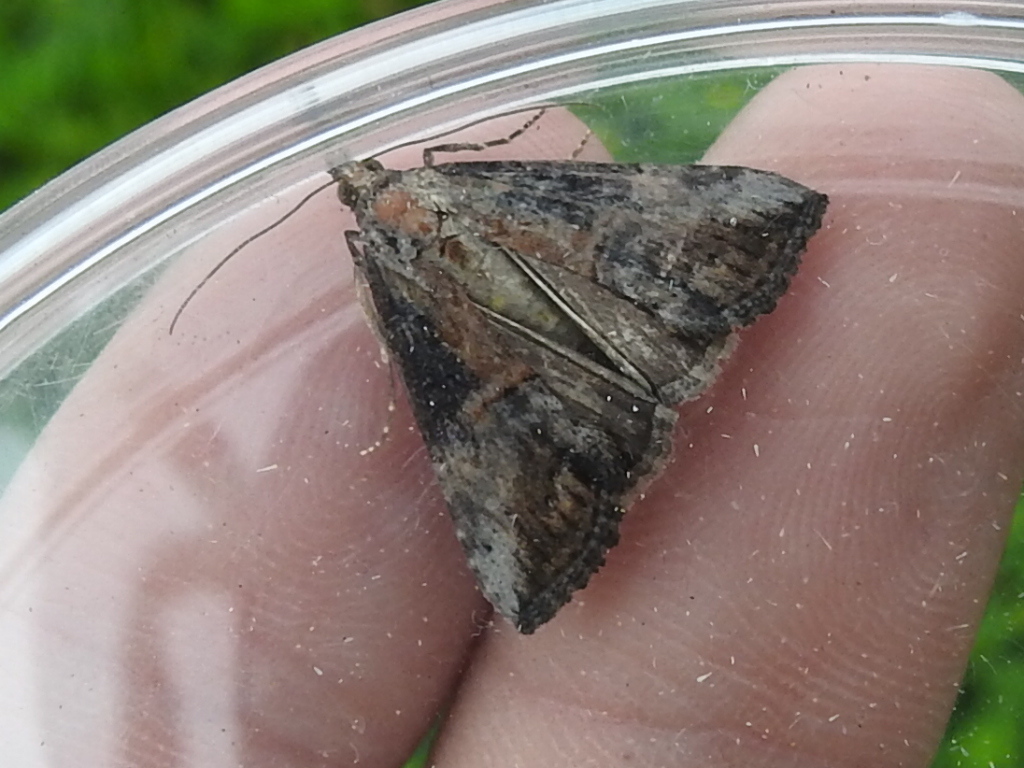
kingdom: Animalia
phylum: Arthropoda
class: Insecta
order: Lepidoptera
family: Erebidae
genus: Hypena
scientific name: Hypena scabra
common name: Green cloverworm
